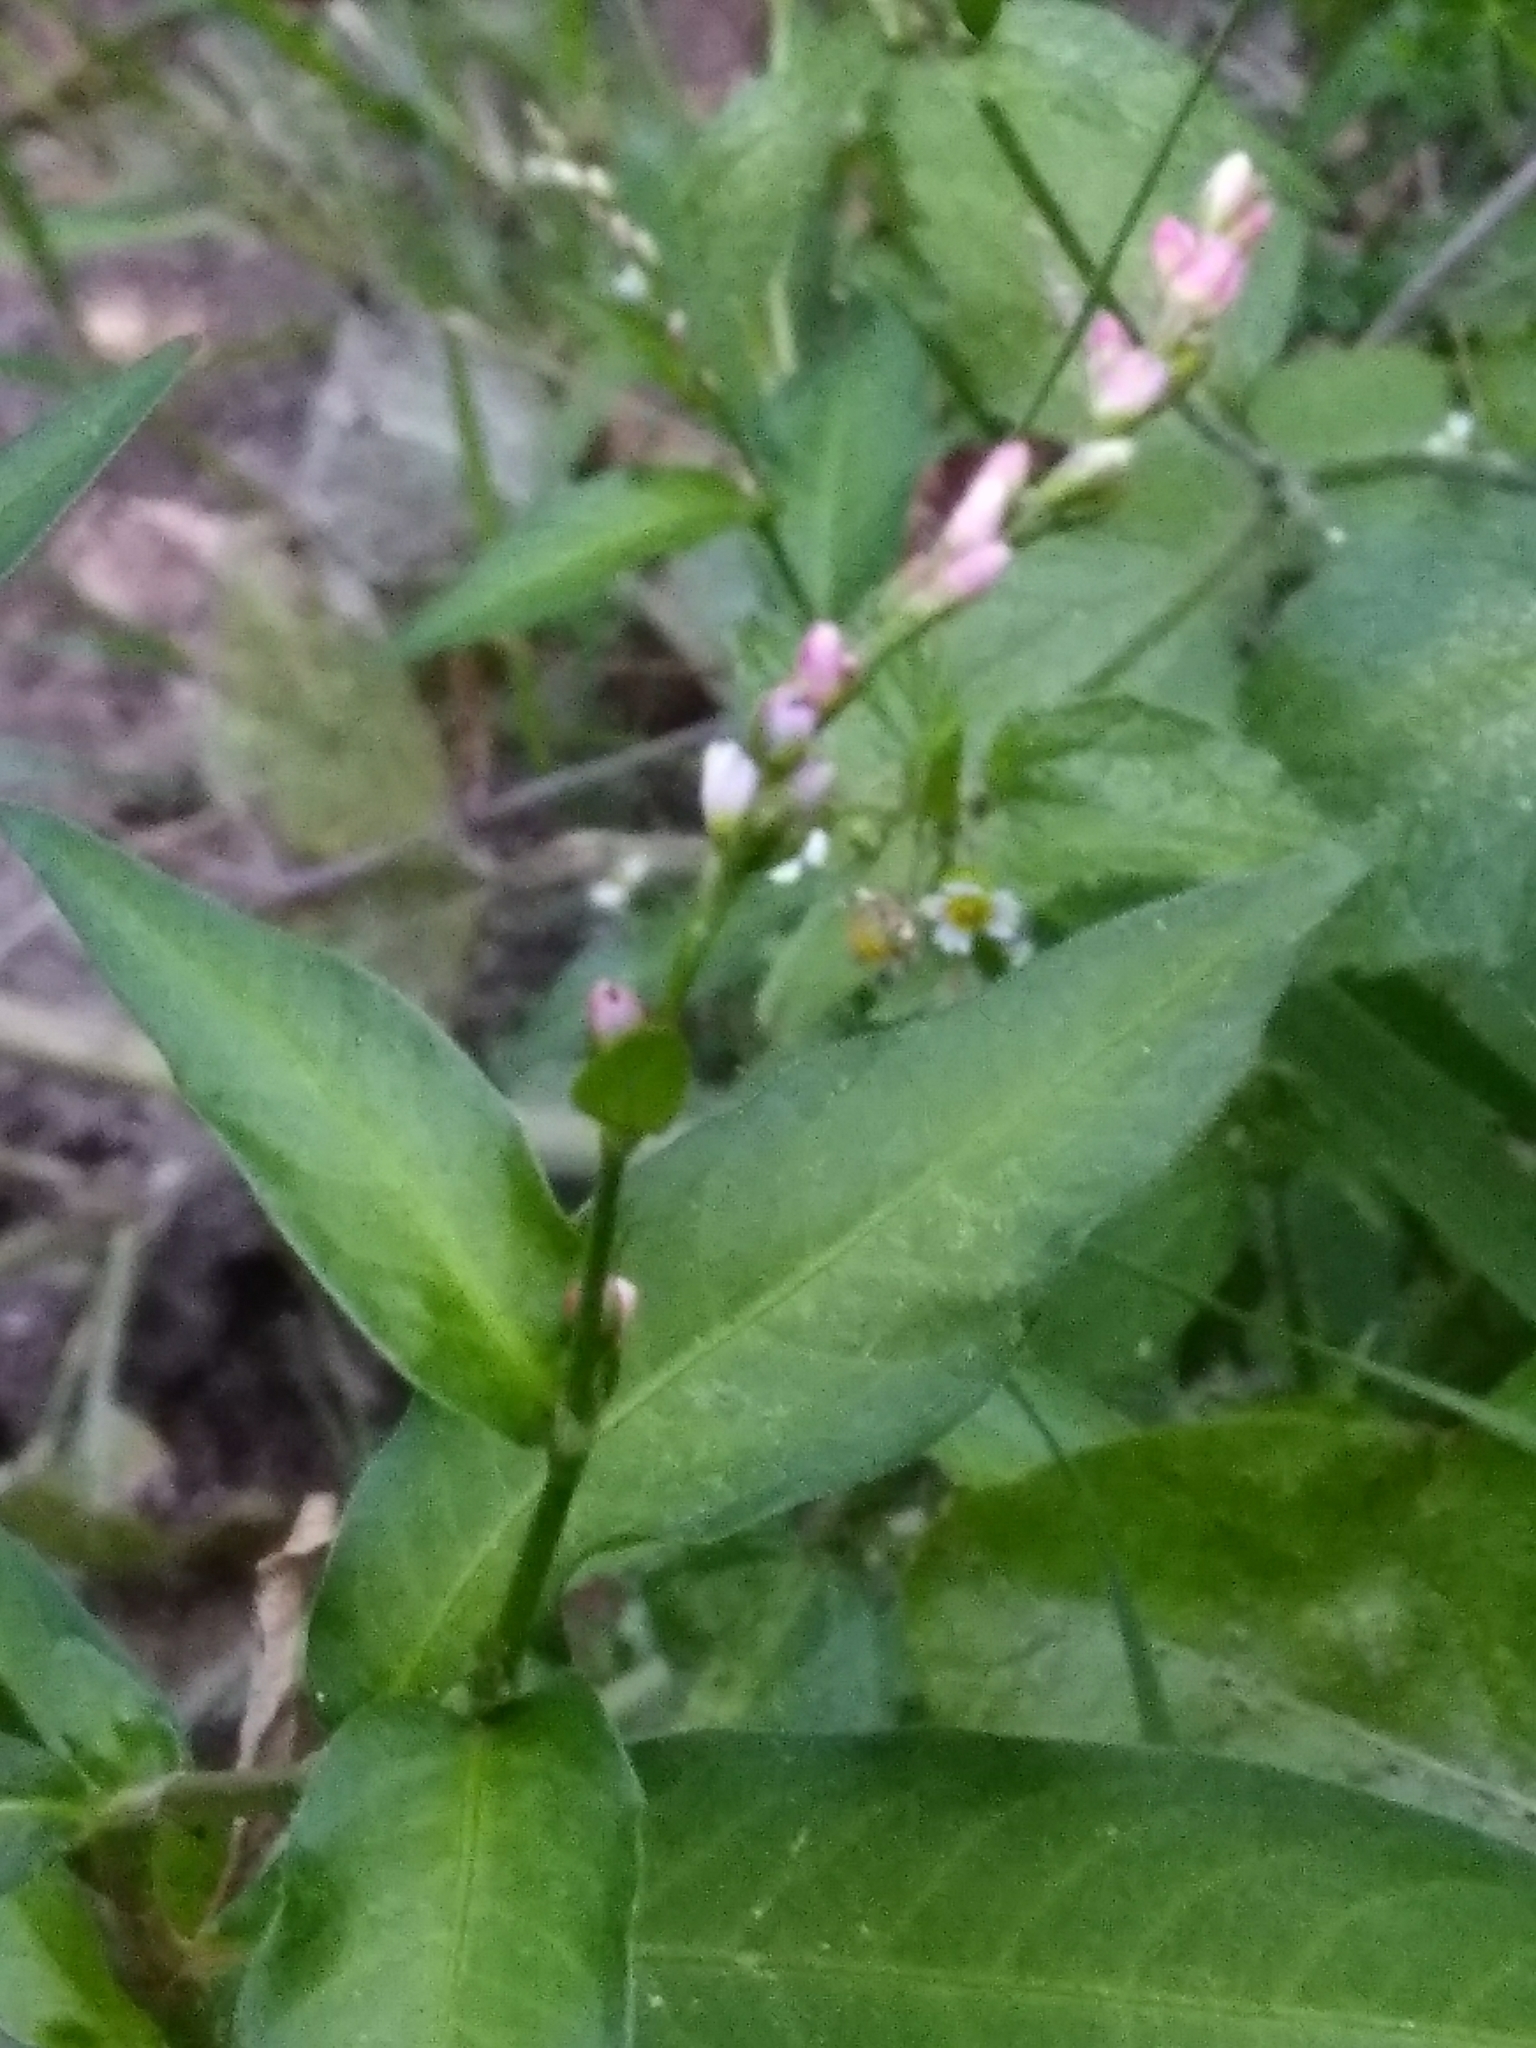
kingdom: Plantae
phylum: Tracheophyta
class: Magnoliopsida
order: Caryophyllales
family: Polygonaceae
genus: Persicaria
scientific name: Persicaria hydropiper
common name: Water-pepper
